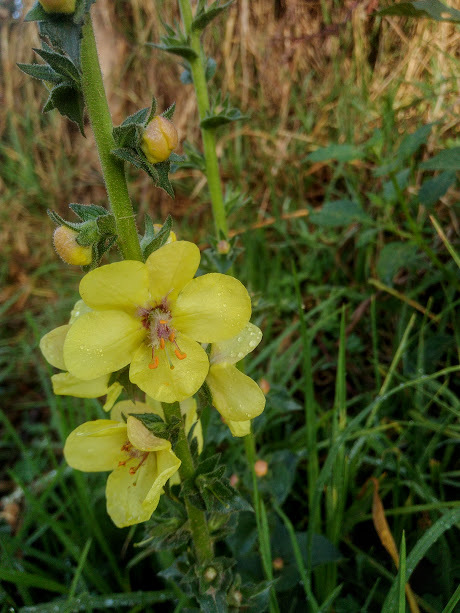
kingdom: Plantae
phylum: Tracheophyta
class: Magnoliopsida
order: Lamiales
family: Scrophulariaceae
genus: Verbascum
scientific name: Verbascum virgatum
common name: Twiggy mullein
